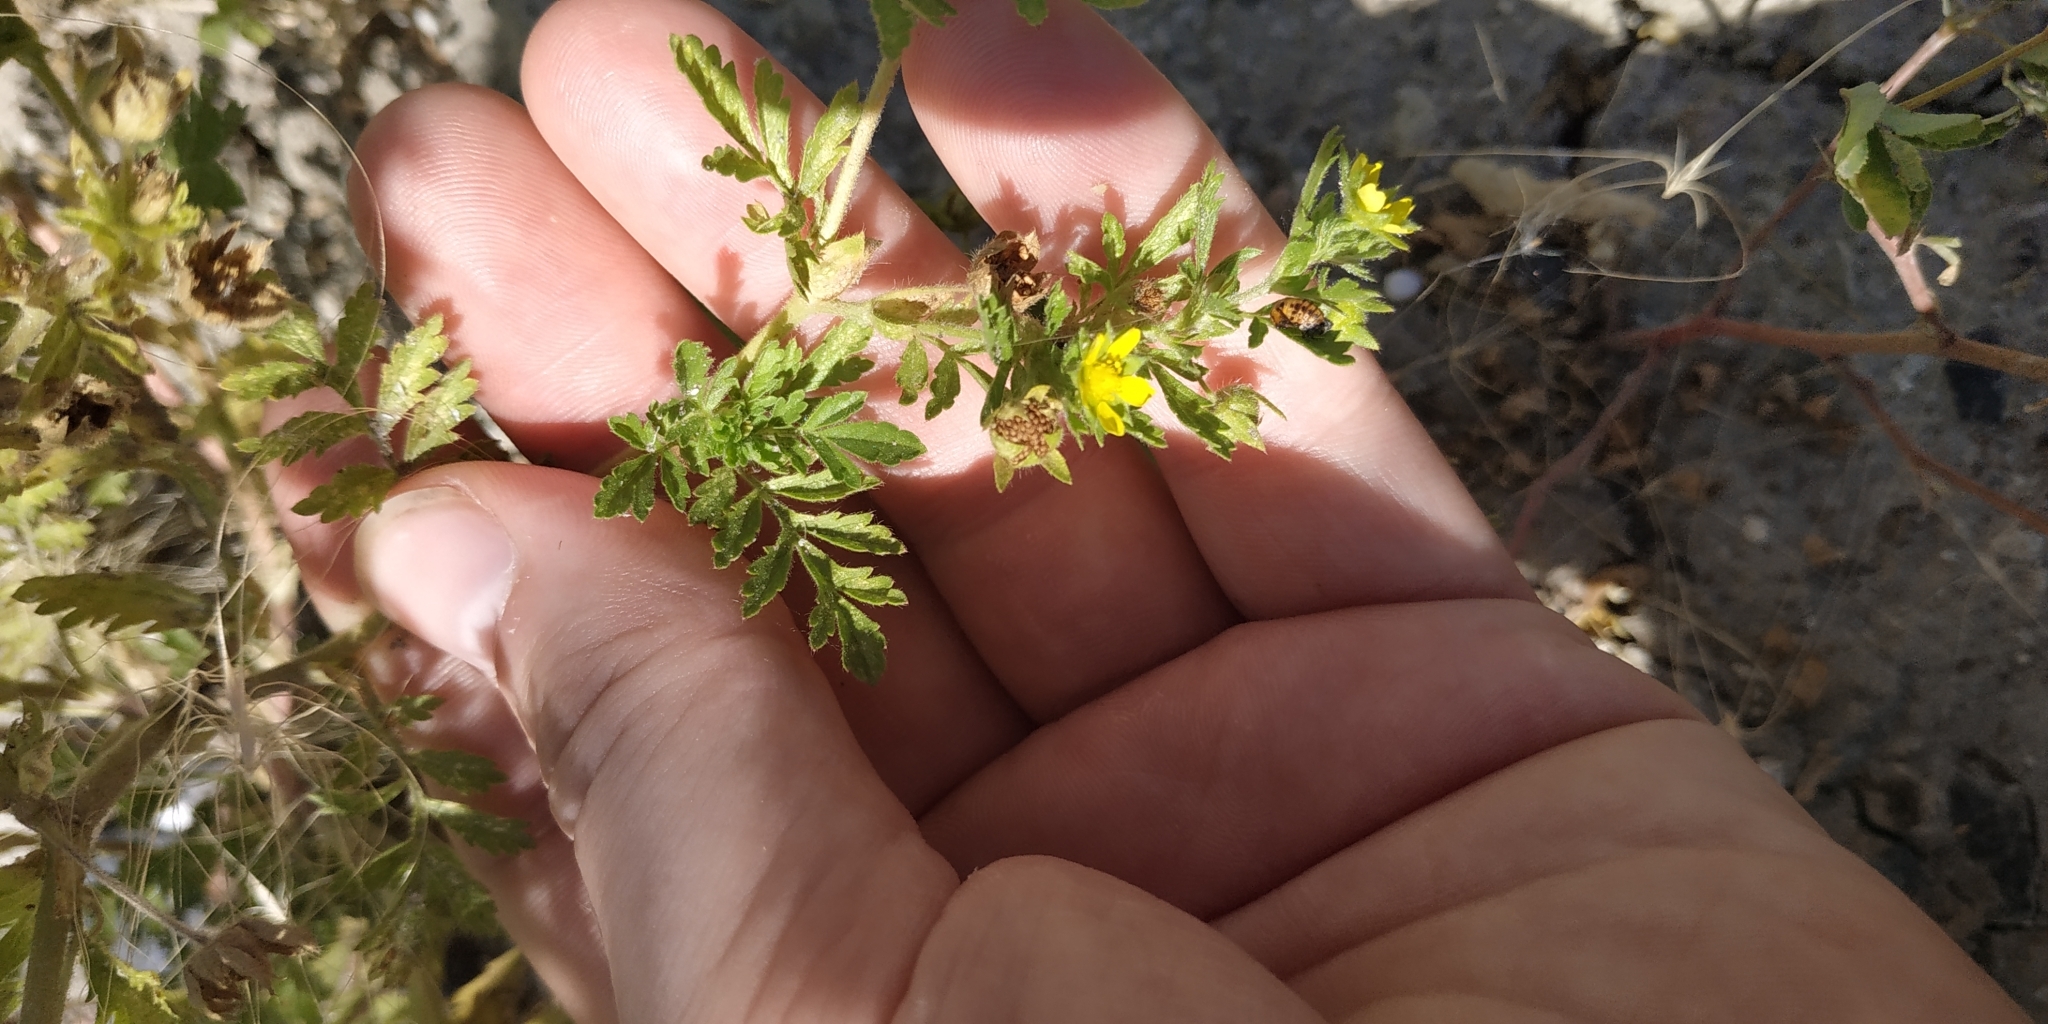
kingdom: Plantae
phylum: Tracheophyta
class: Magnoliopsida
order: Rosales
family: Rosaceae
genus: Potentilla
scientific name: Potentilla supina
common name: Prostrate cinquefoil
